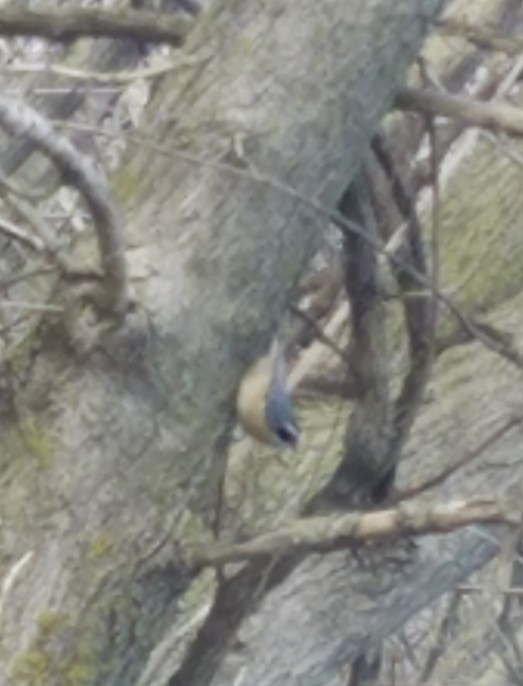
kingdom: Animalia
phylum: Chordata
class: Aves
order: Passeriformes
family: Sittidae
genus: Sitta
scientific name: Sitta canadensis
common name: Red-breasted nuthatch
